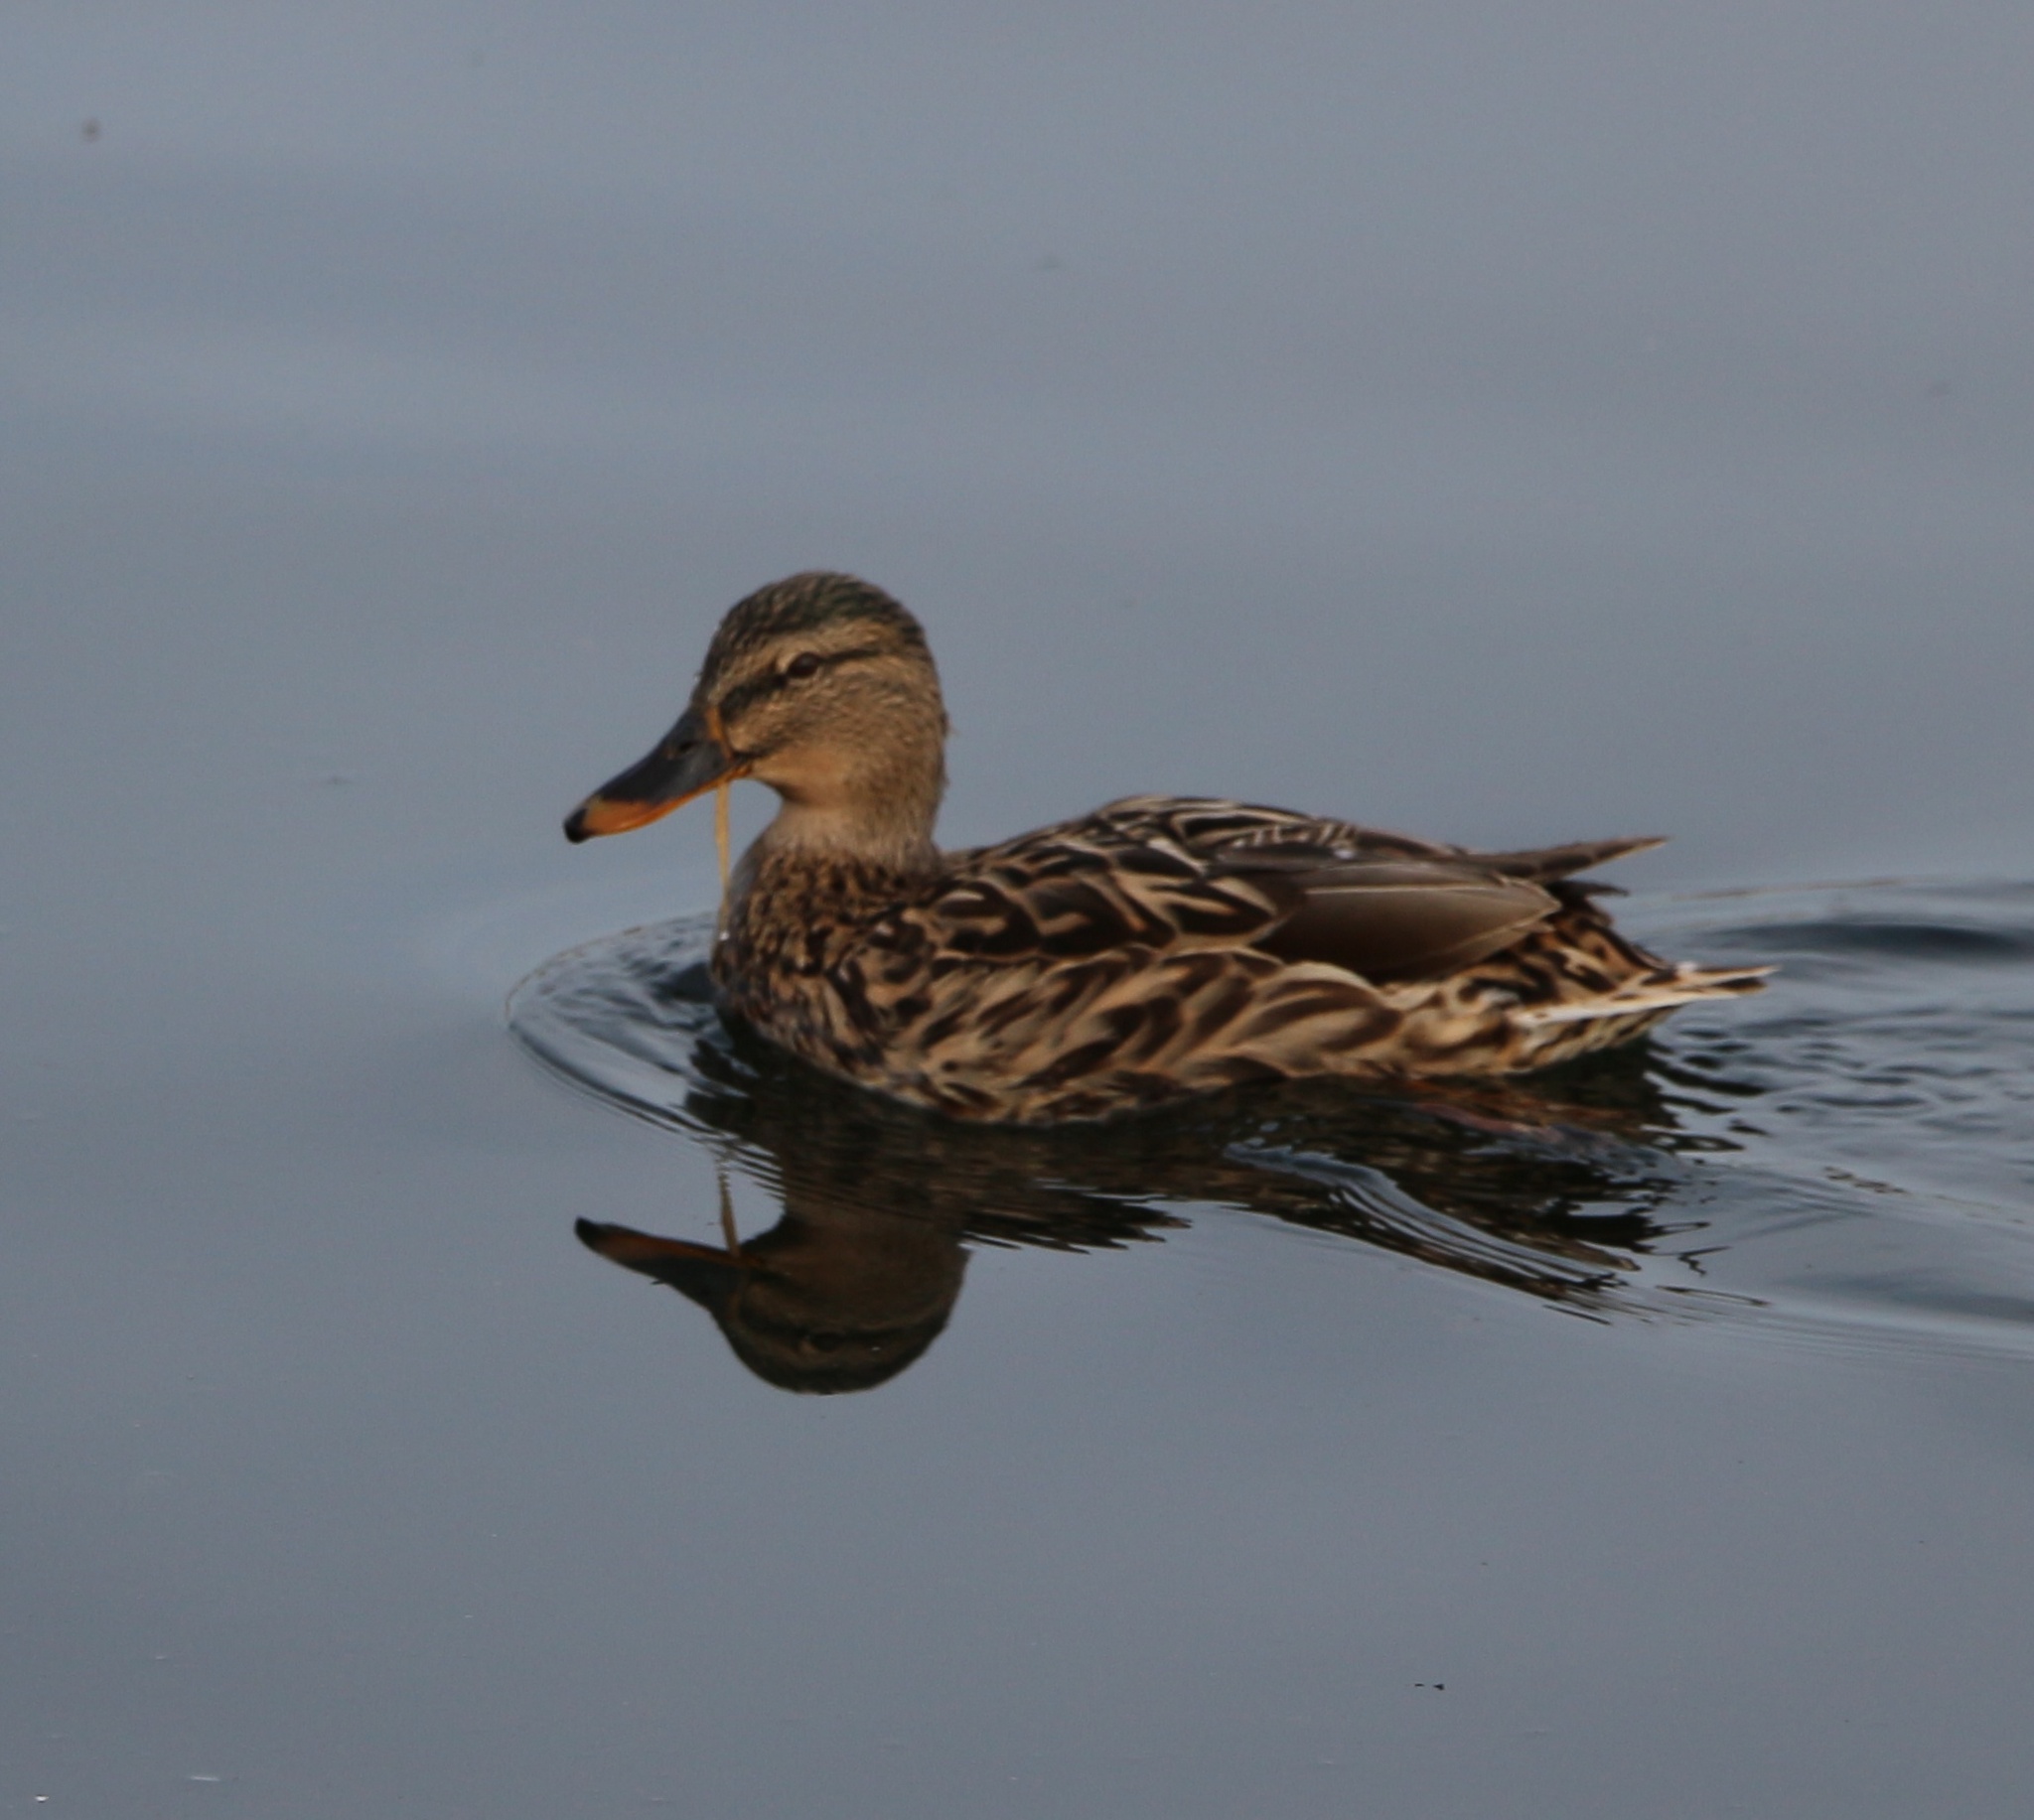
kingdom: Animalia
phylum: Chordata
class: Aves
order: Anseriformes
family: Anatidae
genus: Anas
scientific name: Anas platyrhynchos
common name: Mallard
